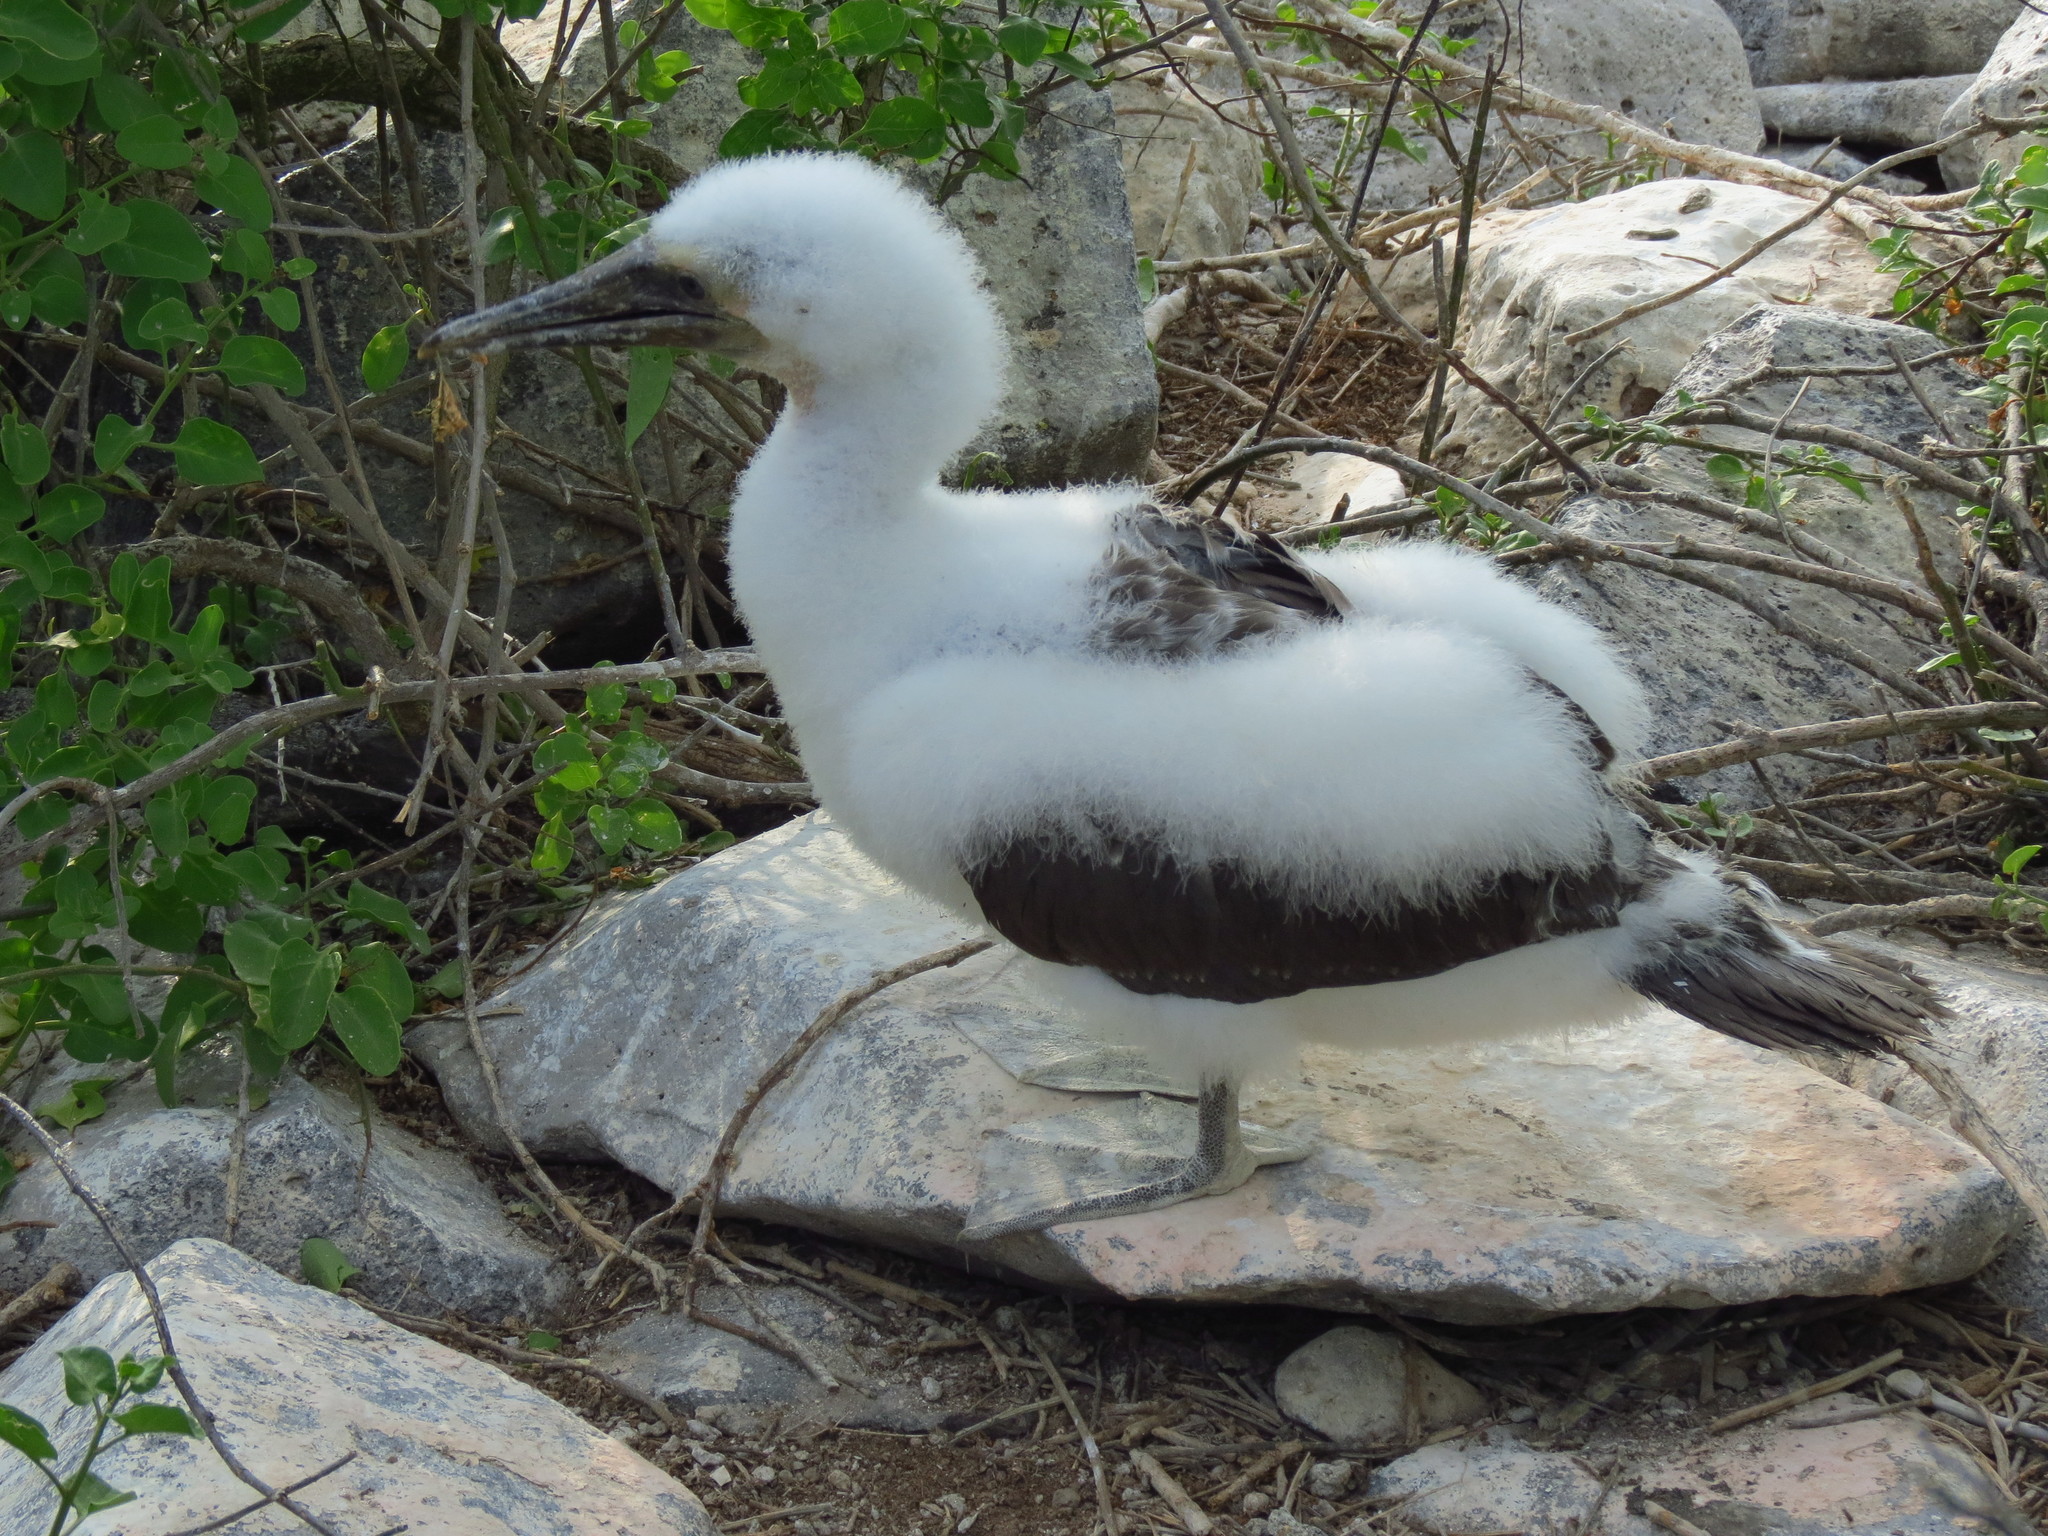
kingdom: Animalia
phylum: Chordata
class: Aves
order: Suliformes
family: Sulidae
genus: Sula
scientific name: Sula granti
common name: Nazca booby
